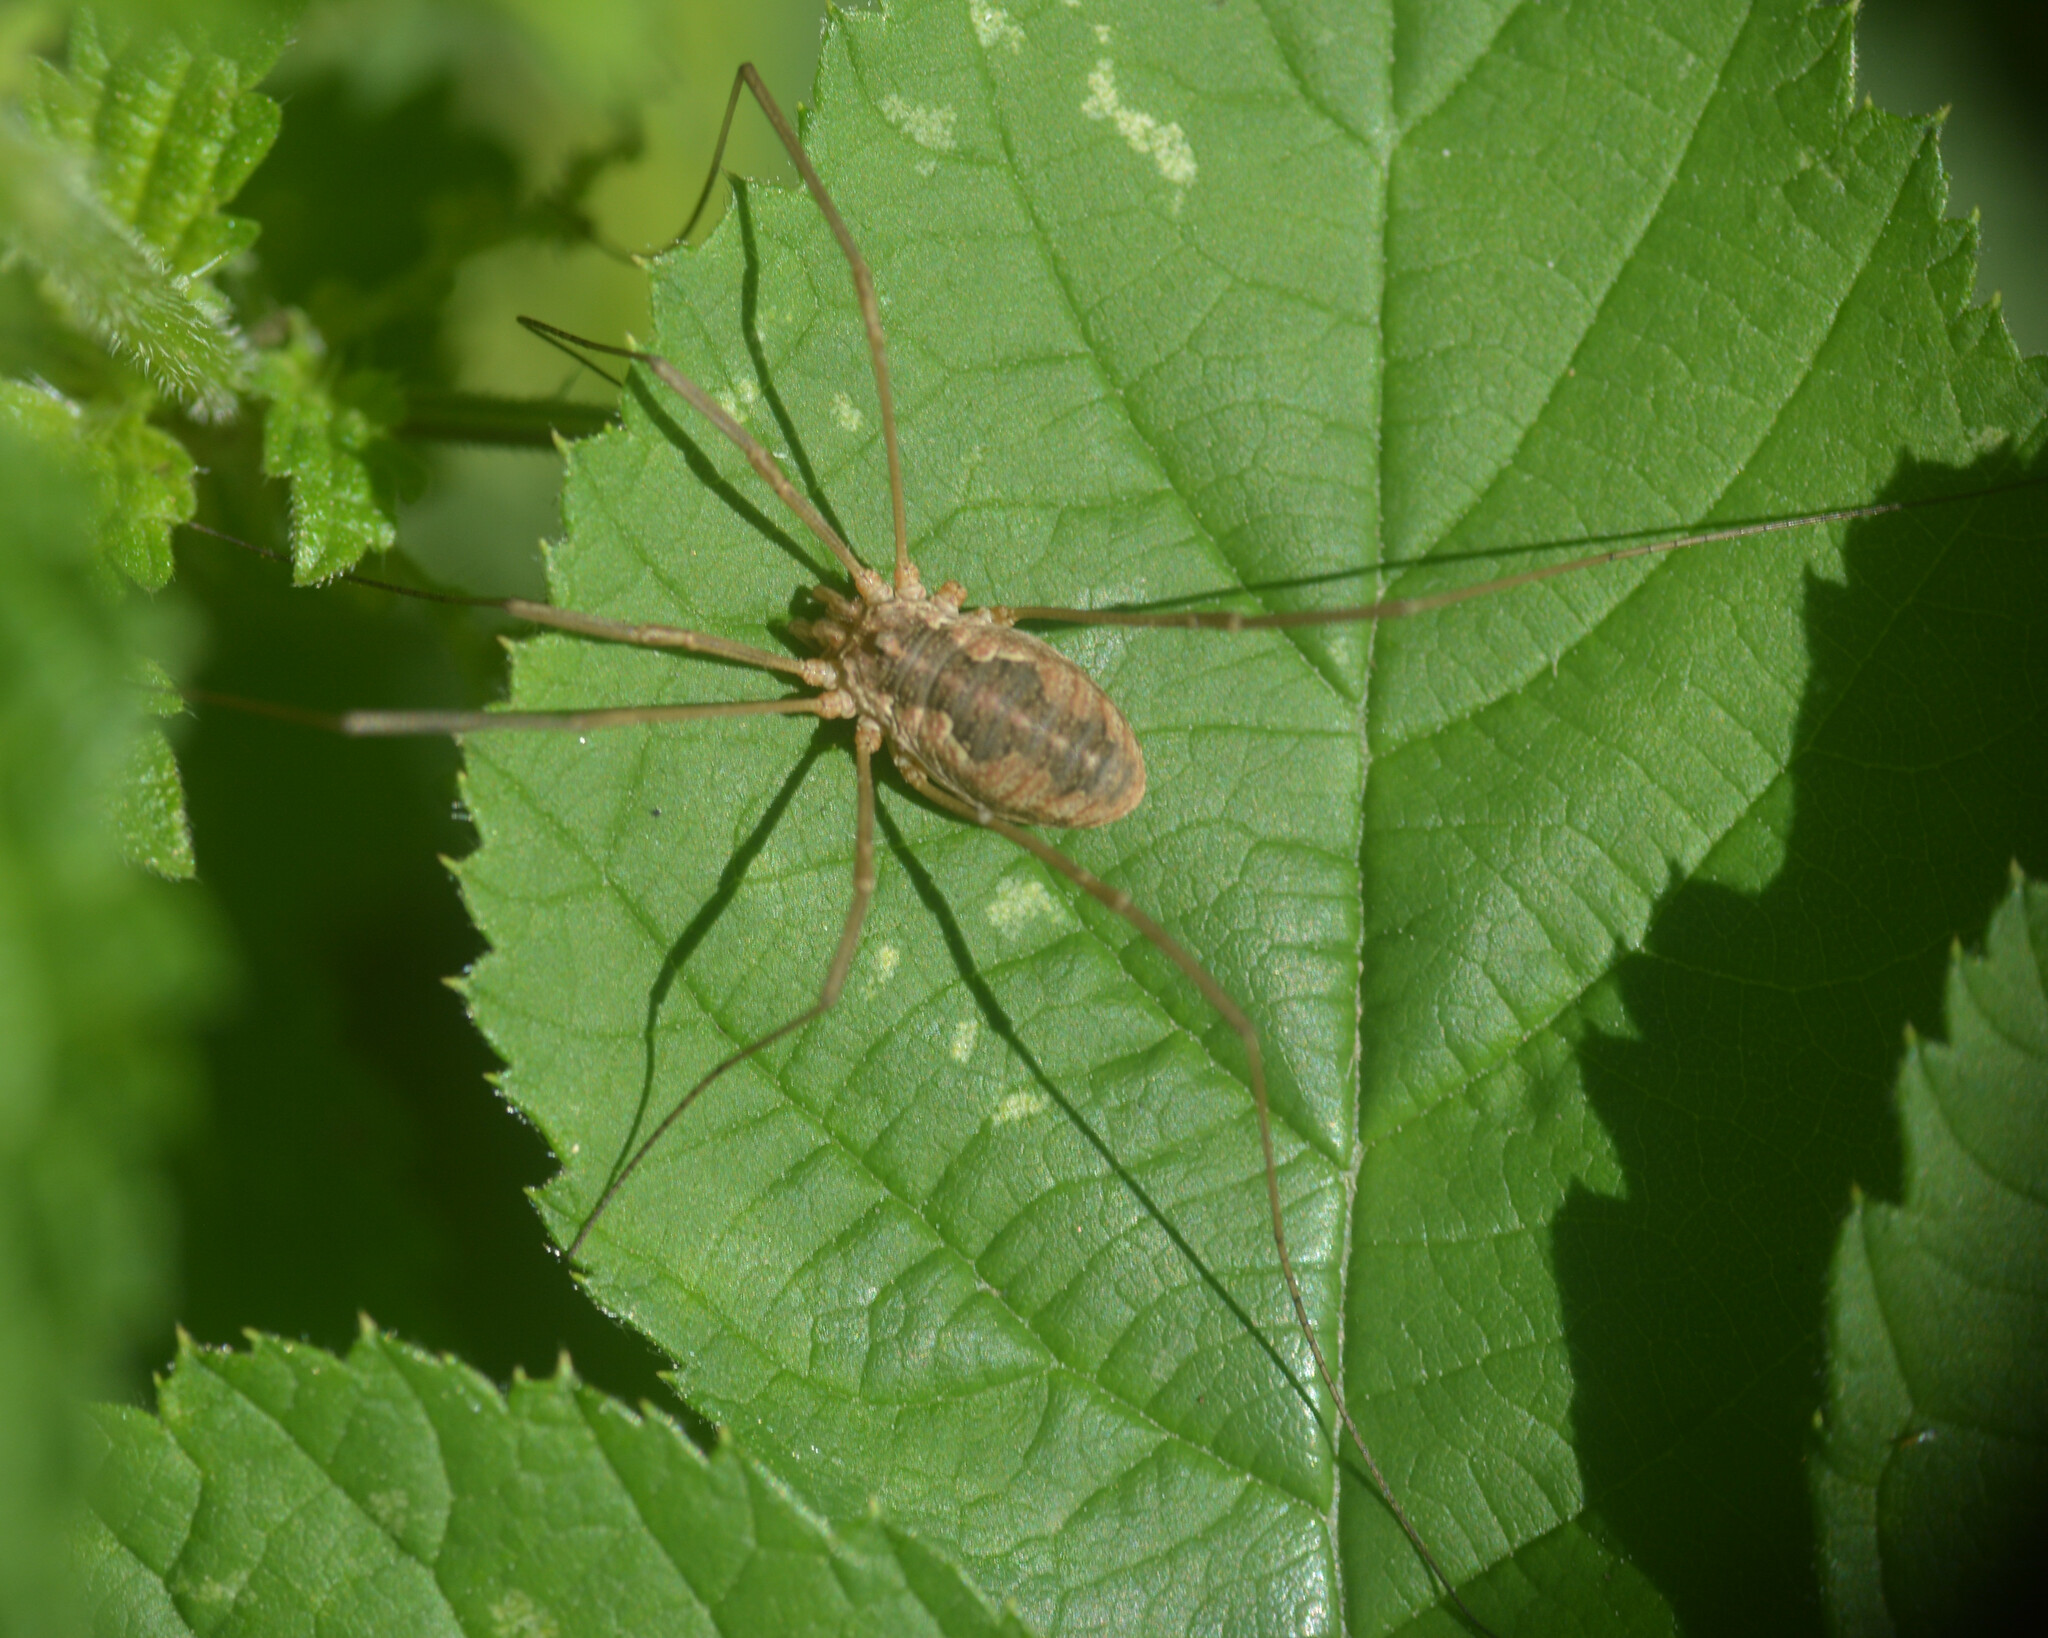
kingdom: Animalia
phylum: Arthropoda
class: Arachnida
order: Opiliones
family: Phalangiidae
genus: Phalangium
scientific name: Phalangium opilio
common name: Daddy longleg
